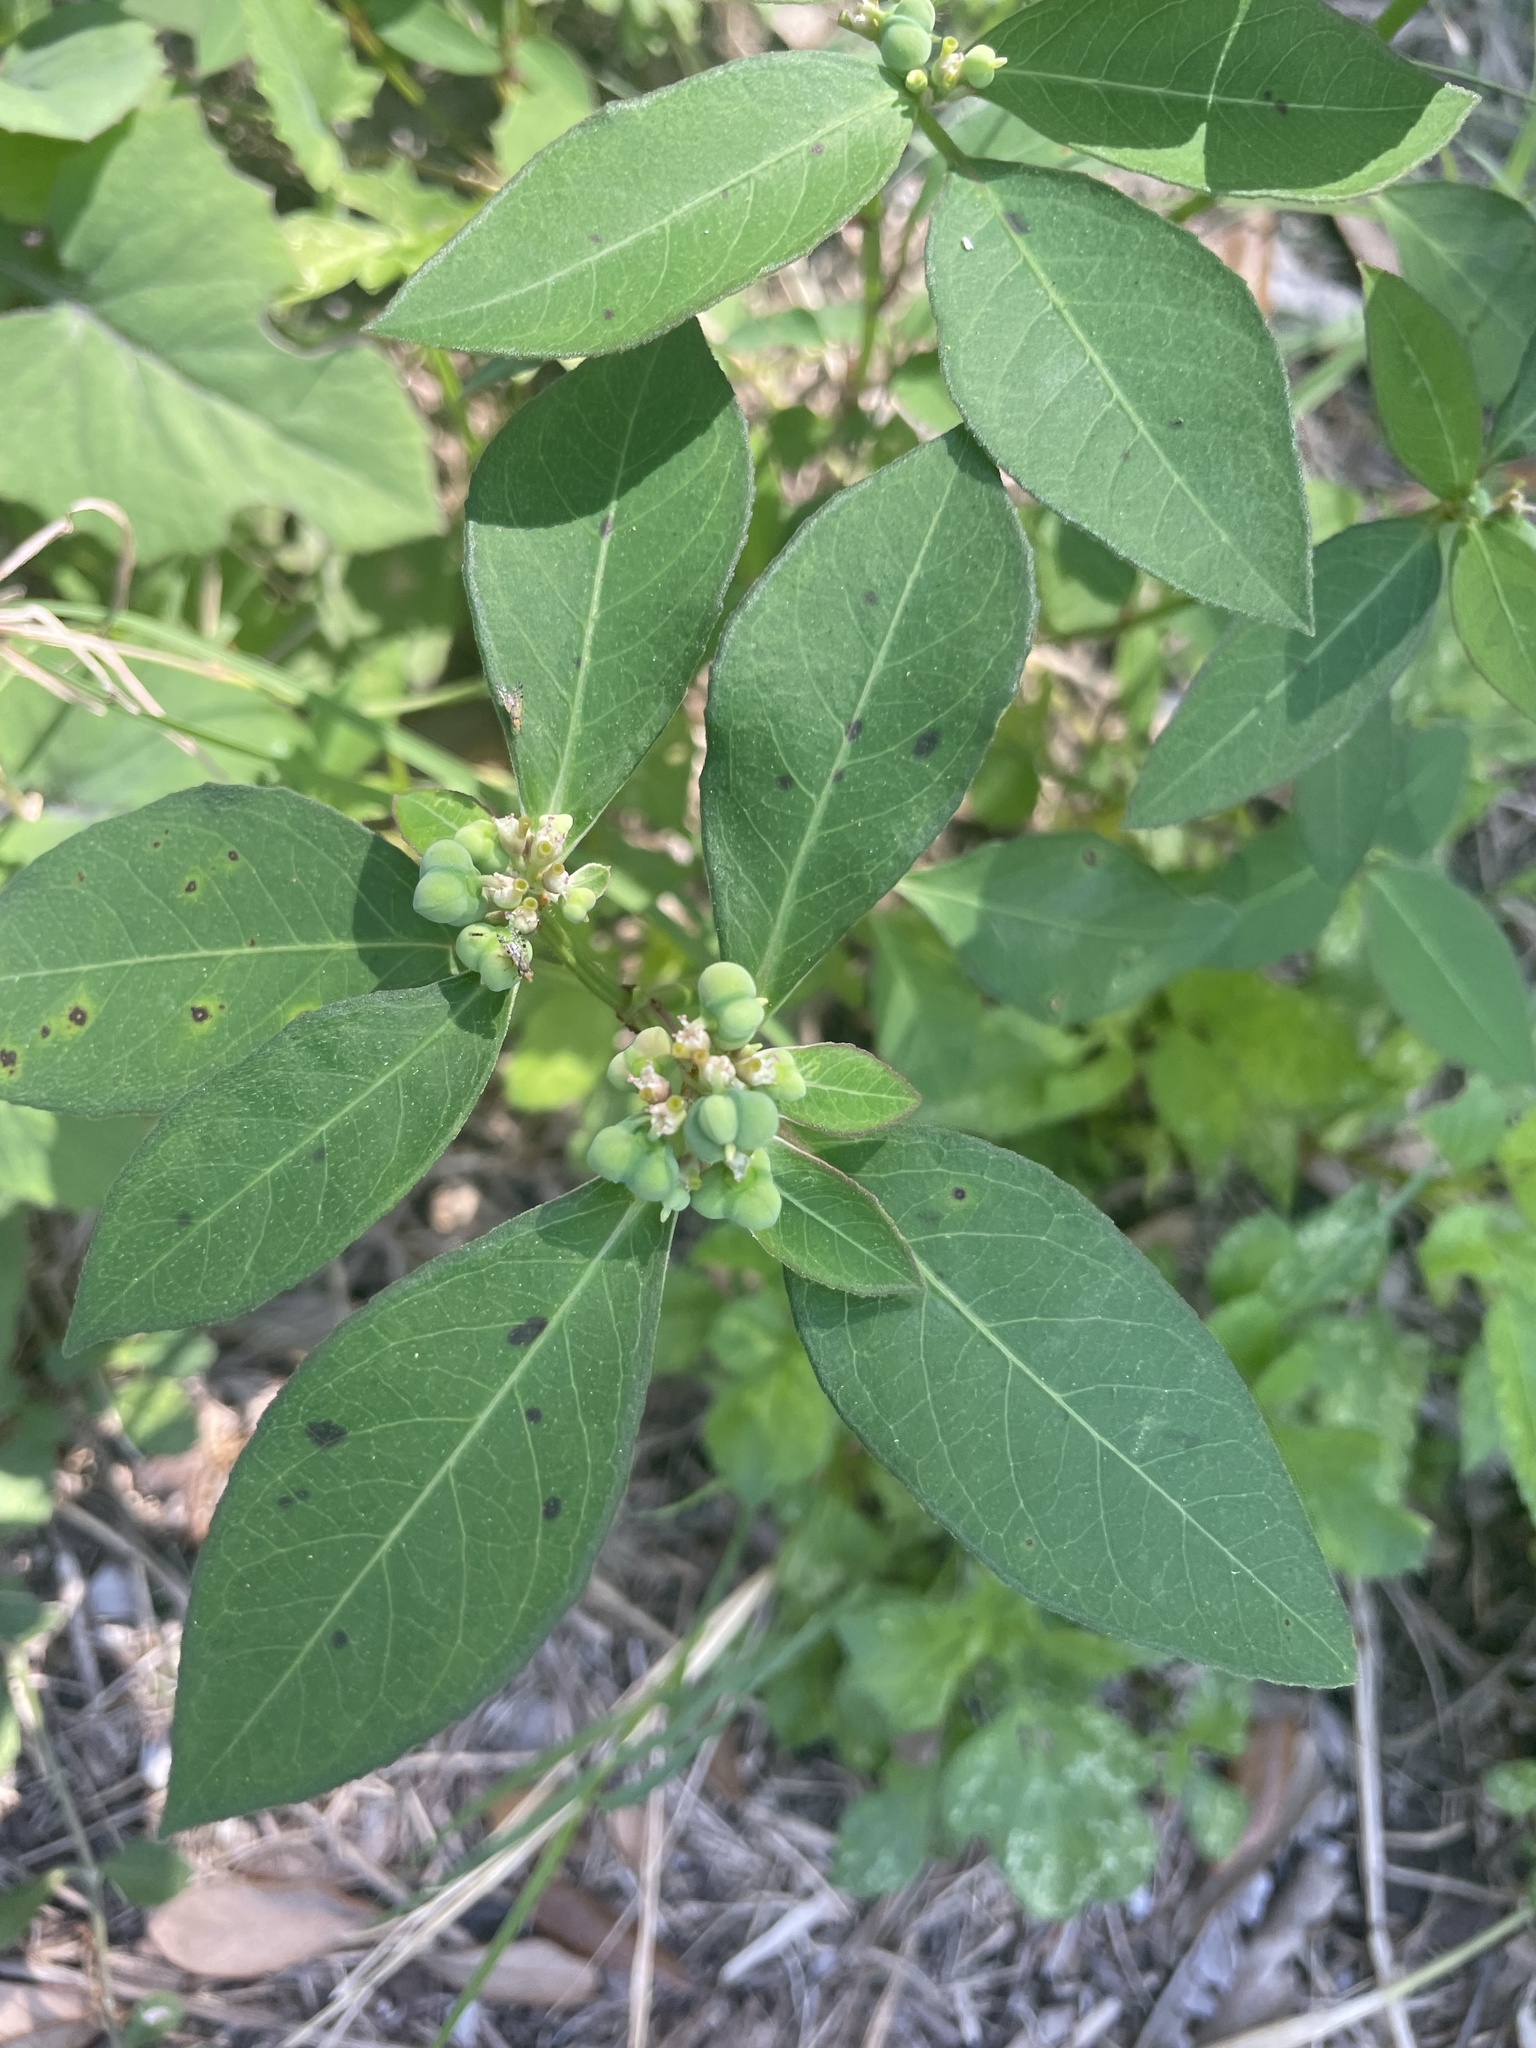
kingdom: Plantae
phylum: Tracheophyta
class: Magnoliopsida
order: Malpighiales
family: Euphorbiaceae
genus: Euphorbia
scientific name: Euphorbia heterophylla
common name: Mexican fireplant
